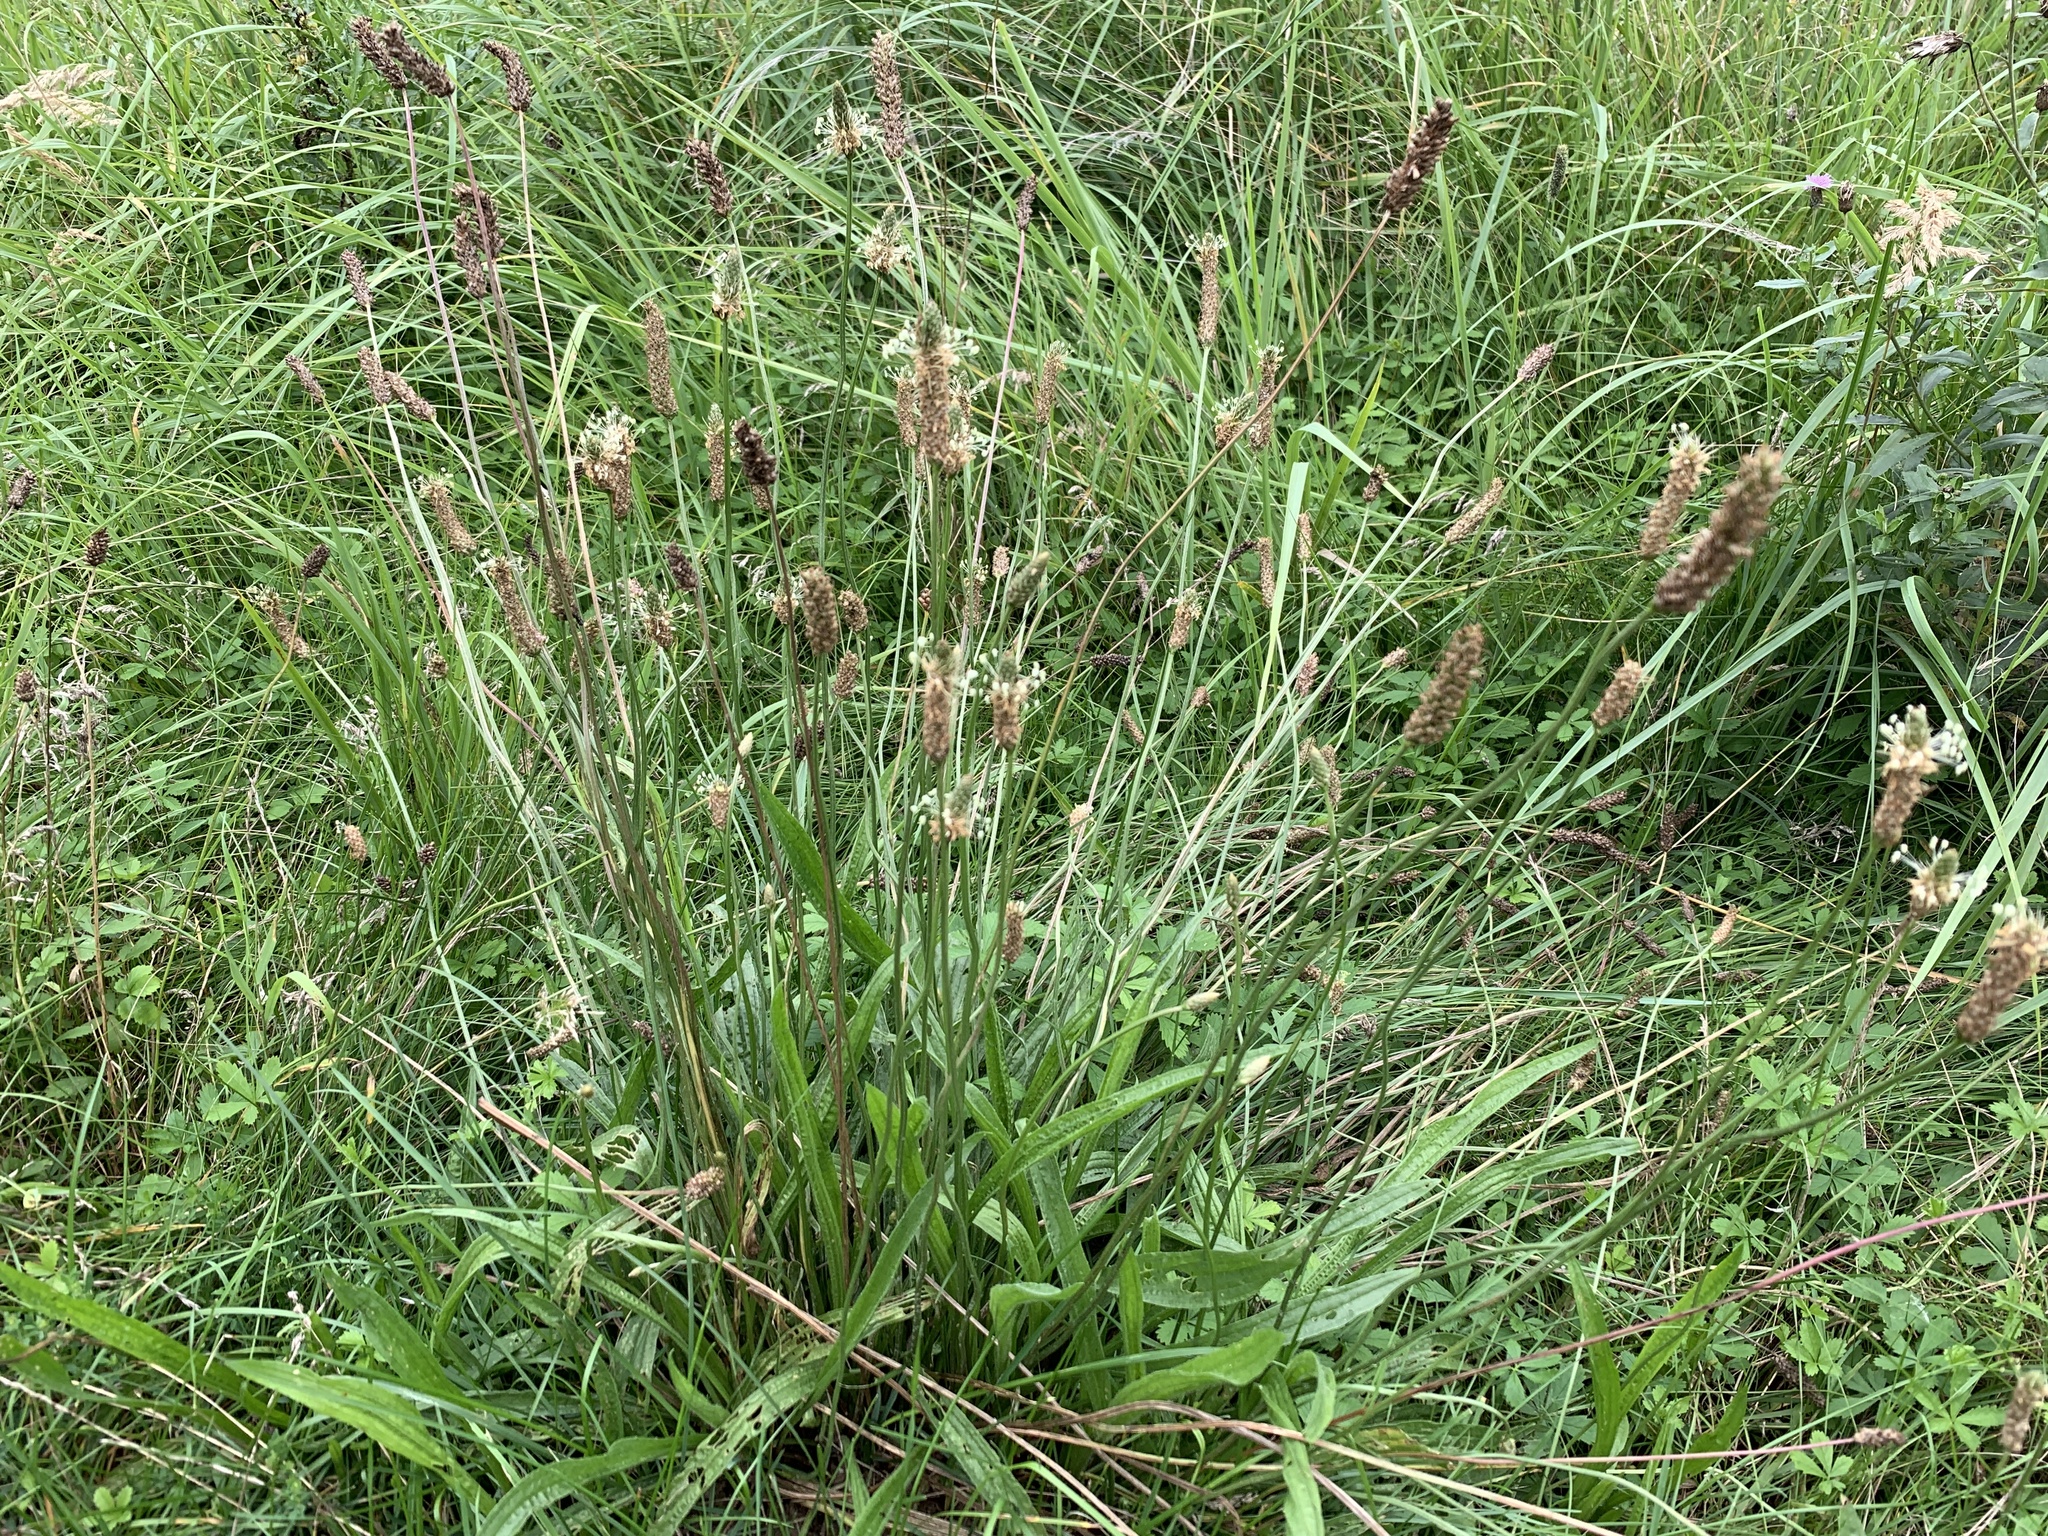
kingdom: Plantae
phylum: Tracheophyta
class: Magnoliopsida
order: Lamiales
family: Plantaginaceae
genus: Plantago
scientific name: Plantago lanceolata
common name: Ribwort plantain
